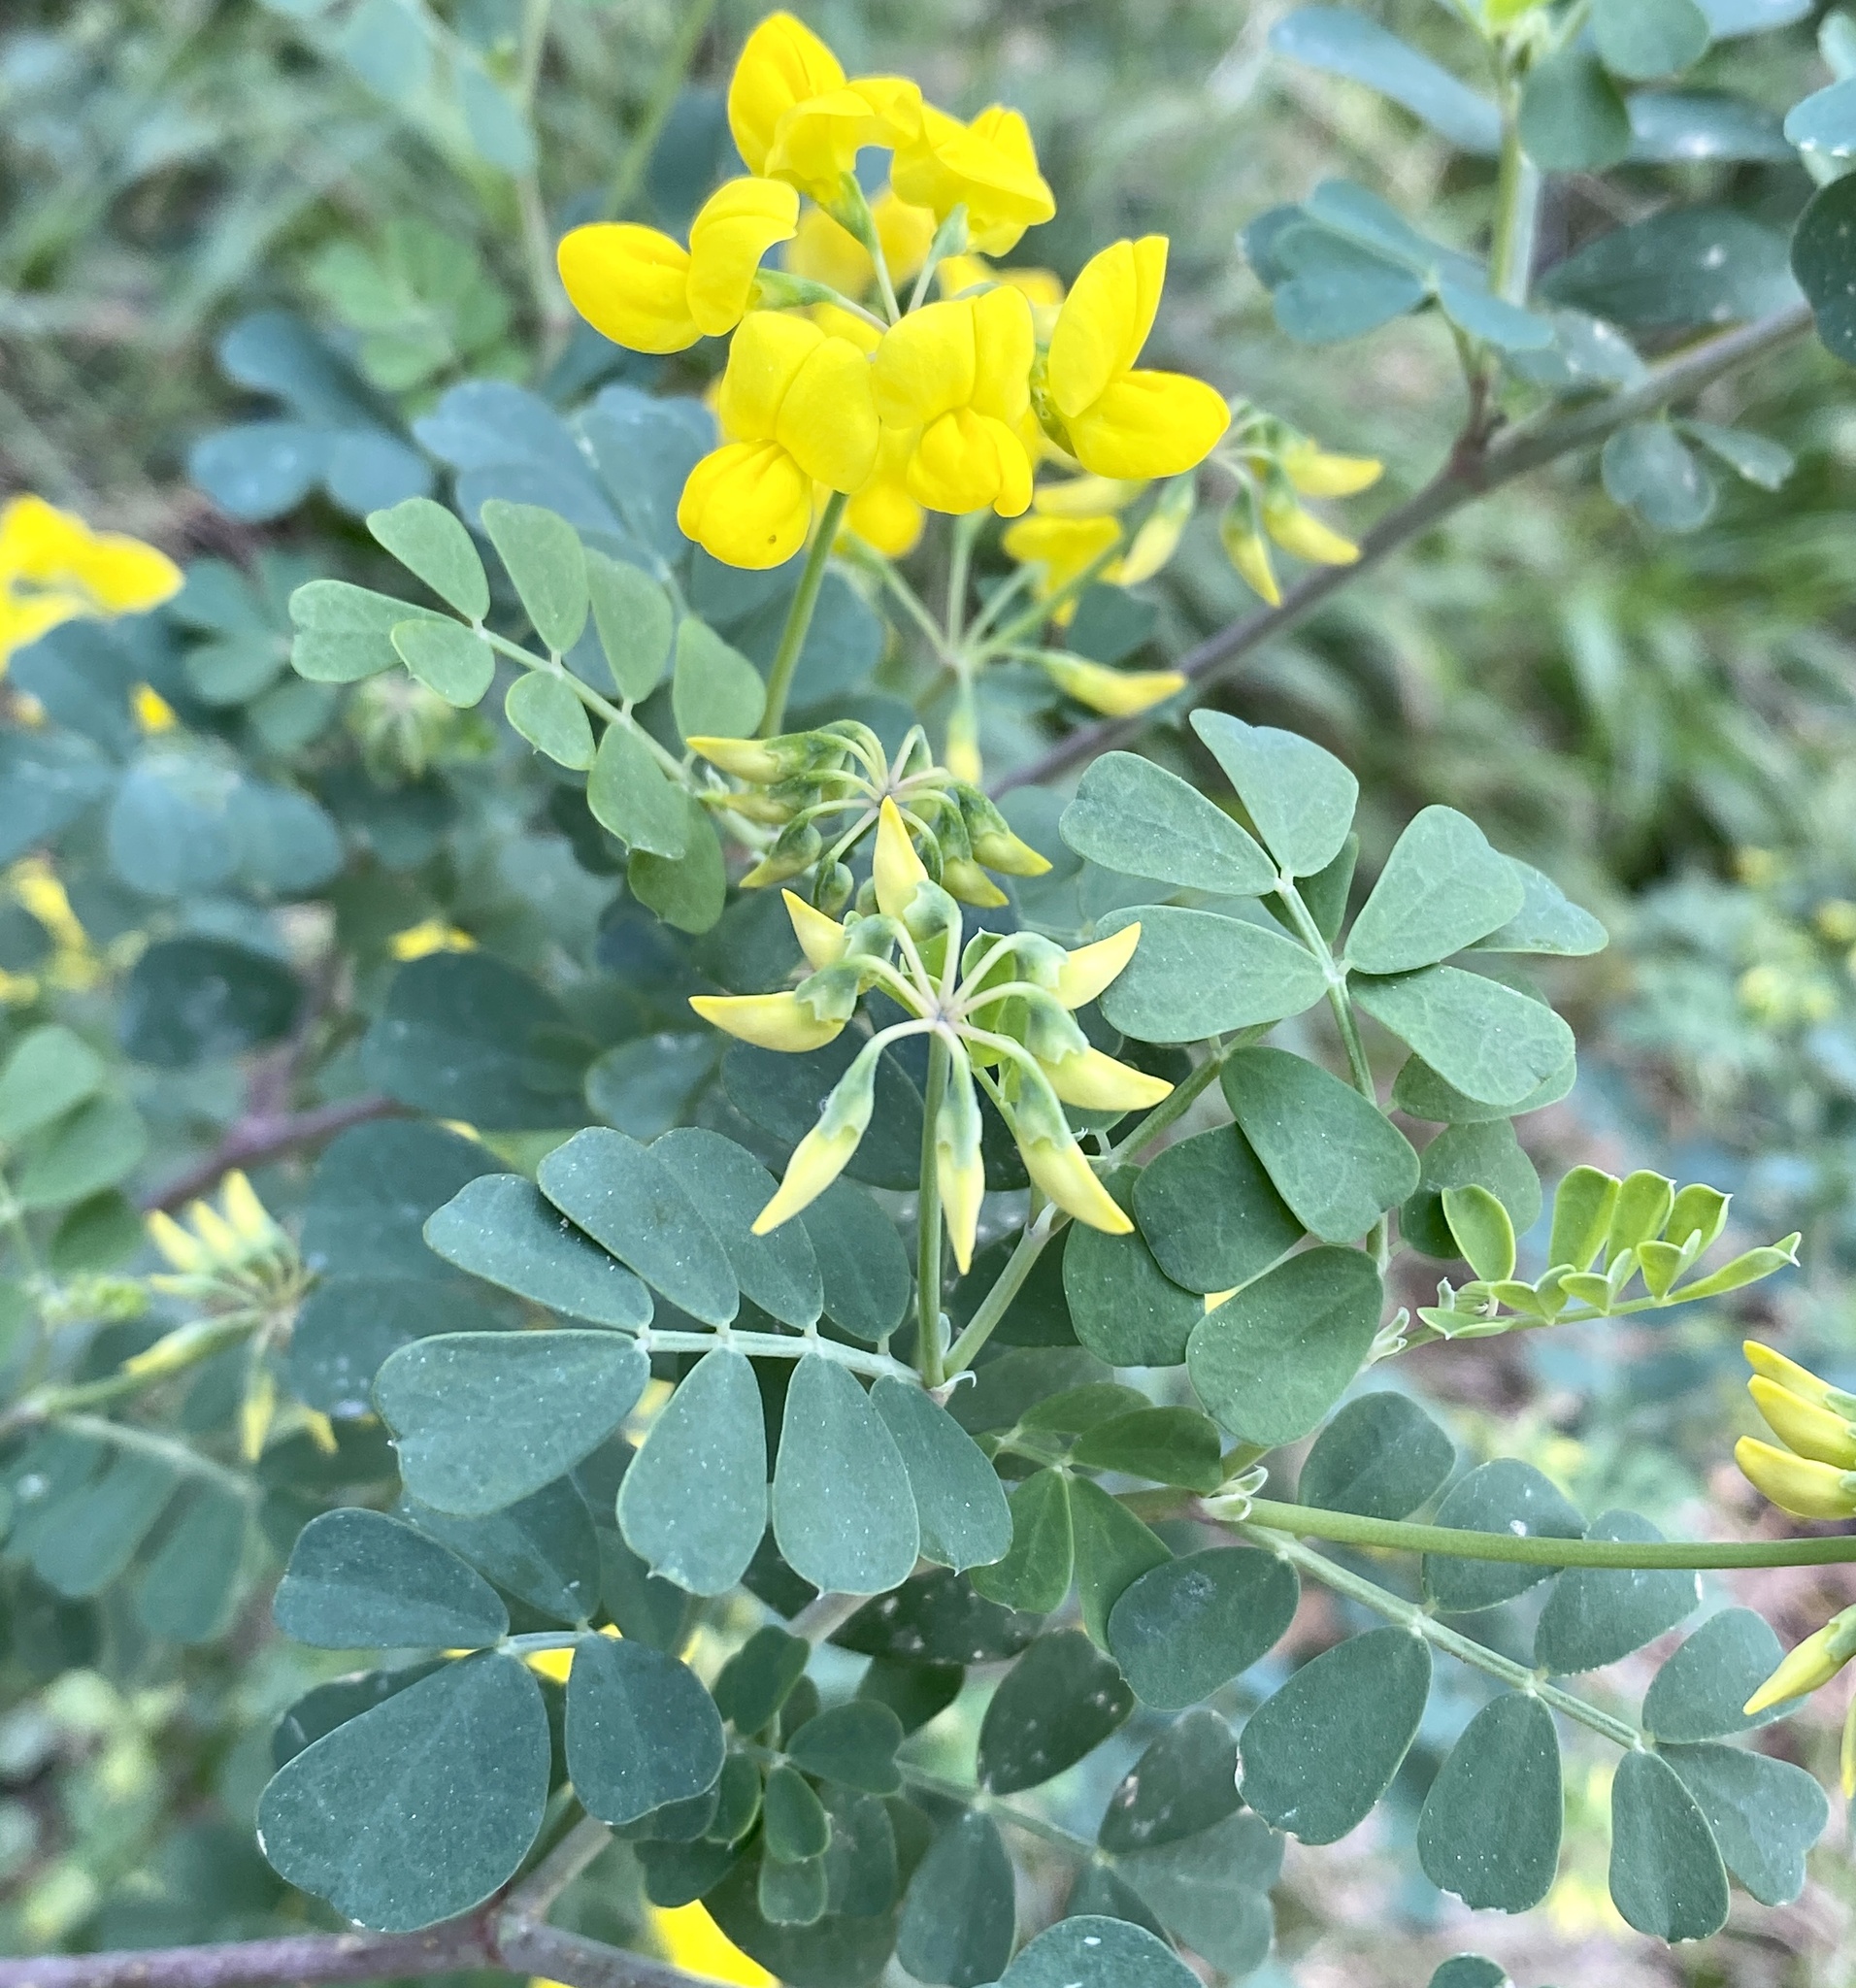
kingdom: Plantae
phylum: Tracheophyta
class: Magnoliopsida
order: Fabales
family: Fabaceae
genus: Coronilla
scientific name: Coronilla valentina
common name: Shrubby scorpion-vetch
